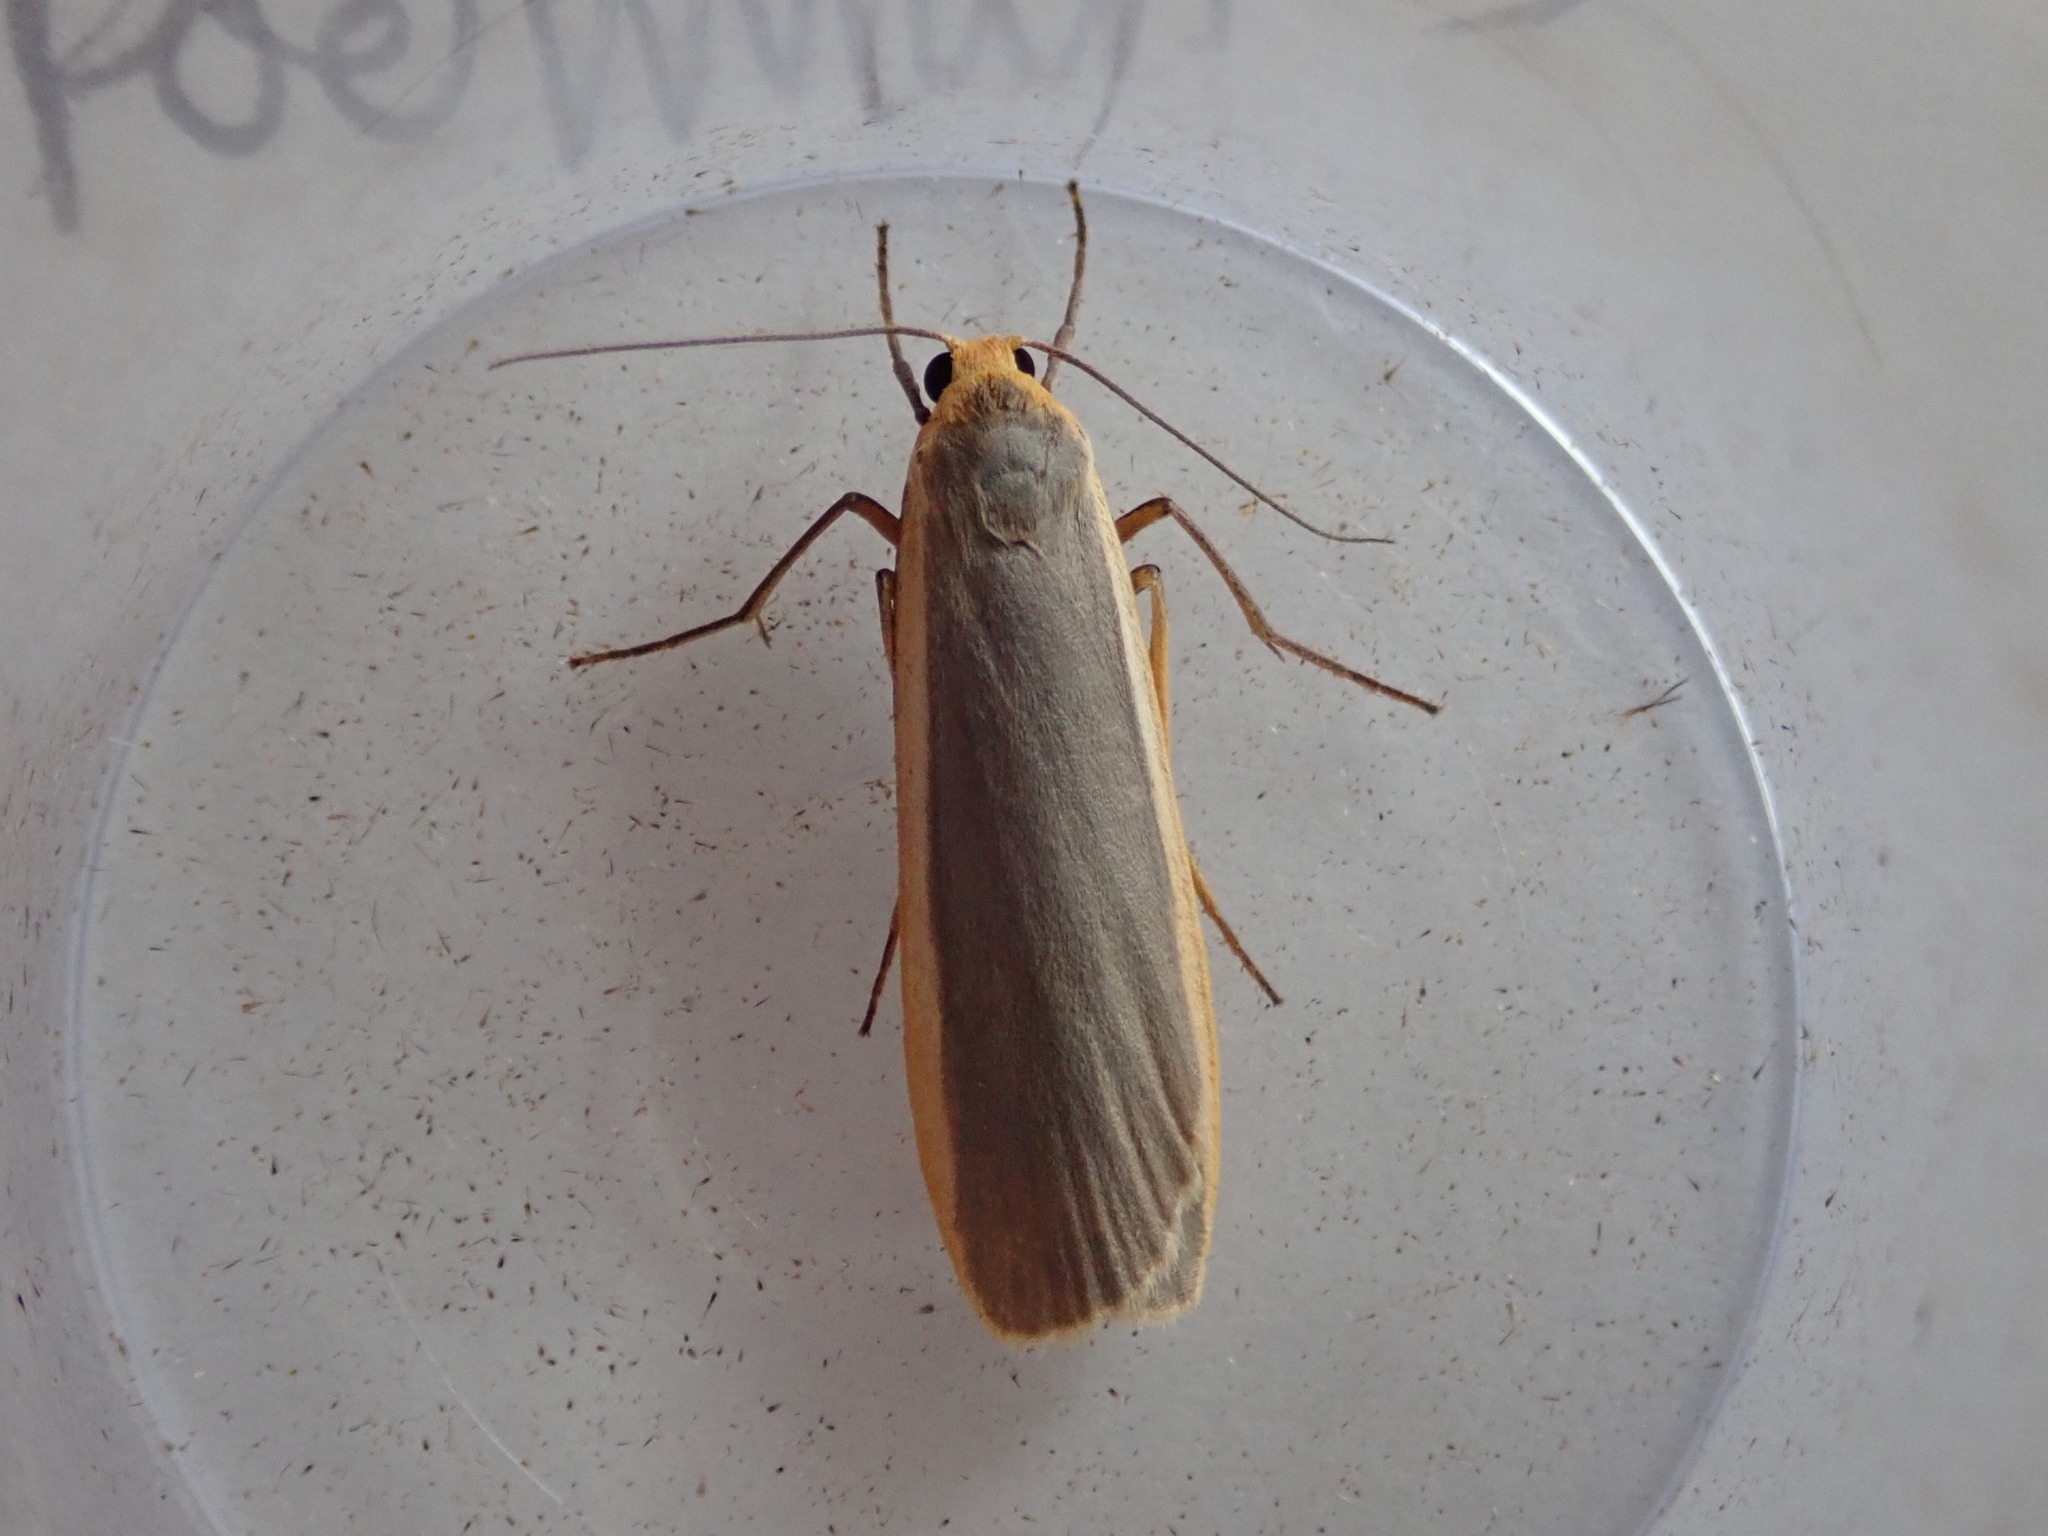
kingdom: Animalia
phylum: Arthropoda
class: Insecta
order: Lepidoptera
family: Erebidae
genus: Nyea
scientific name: Nyea lurideola
